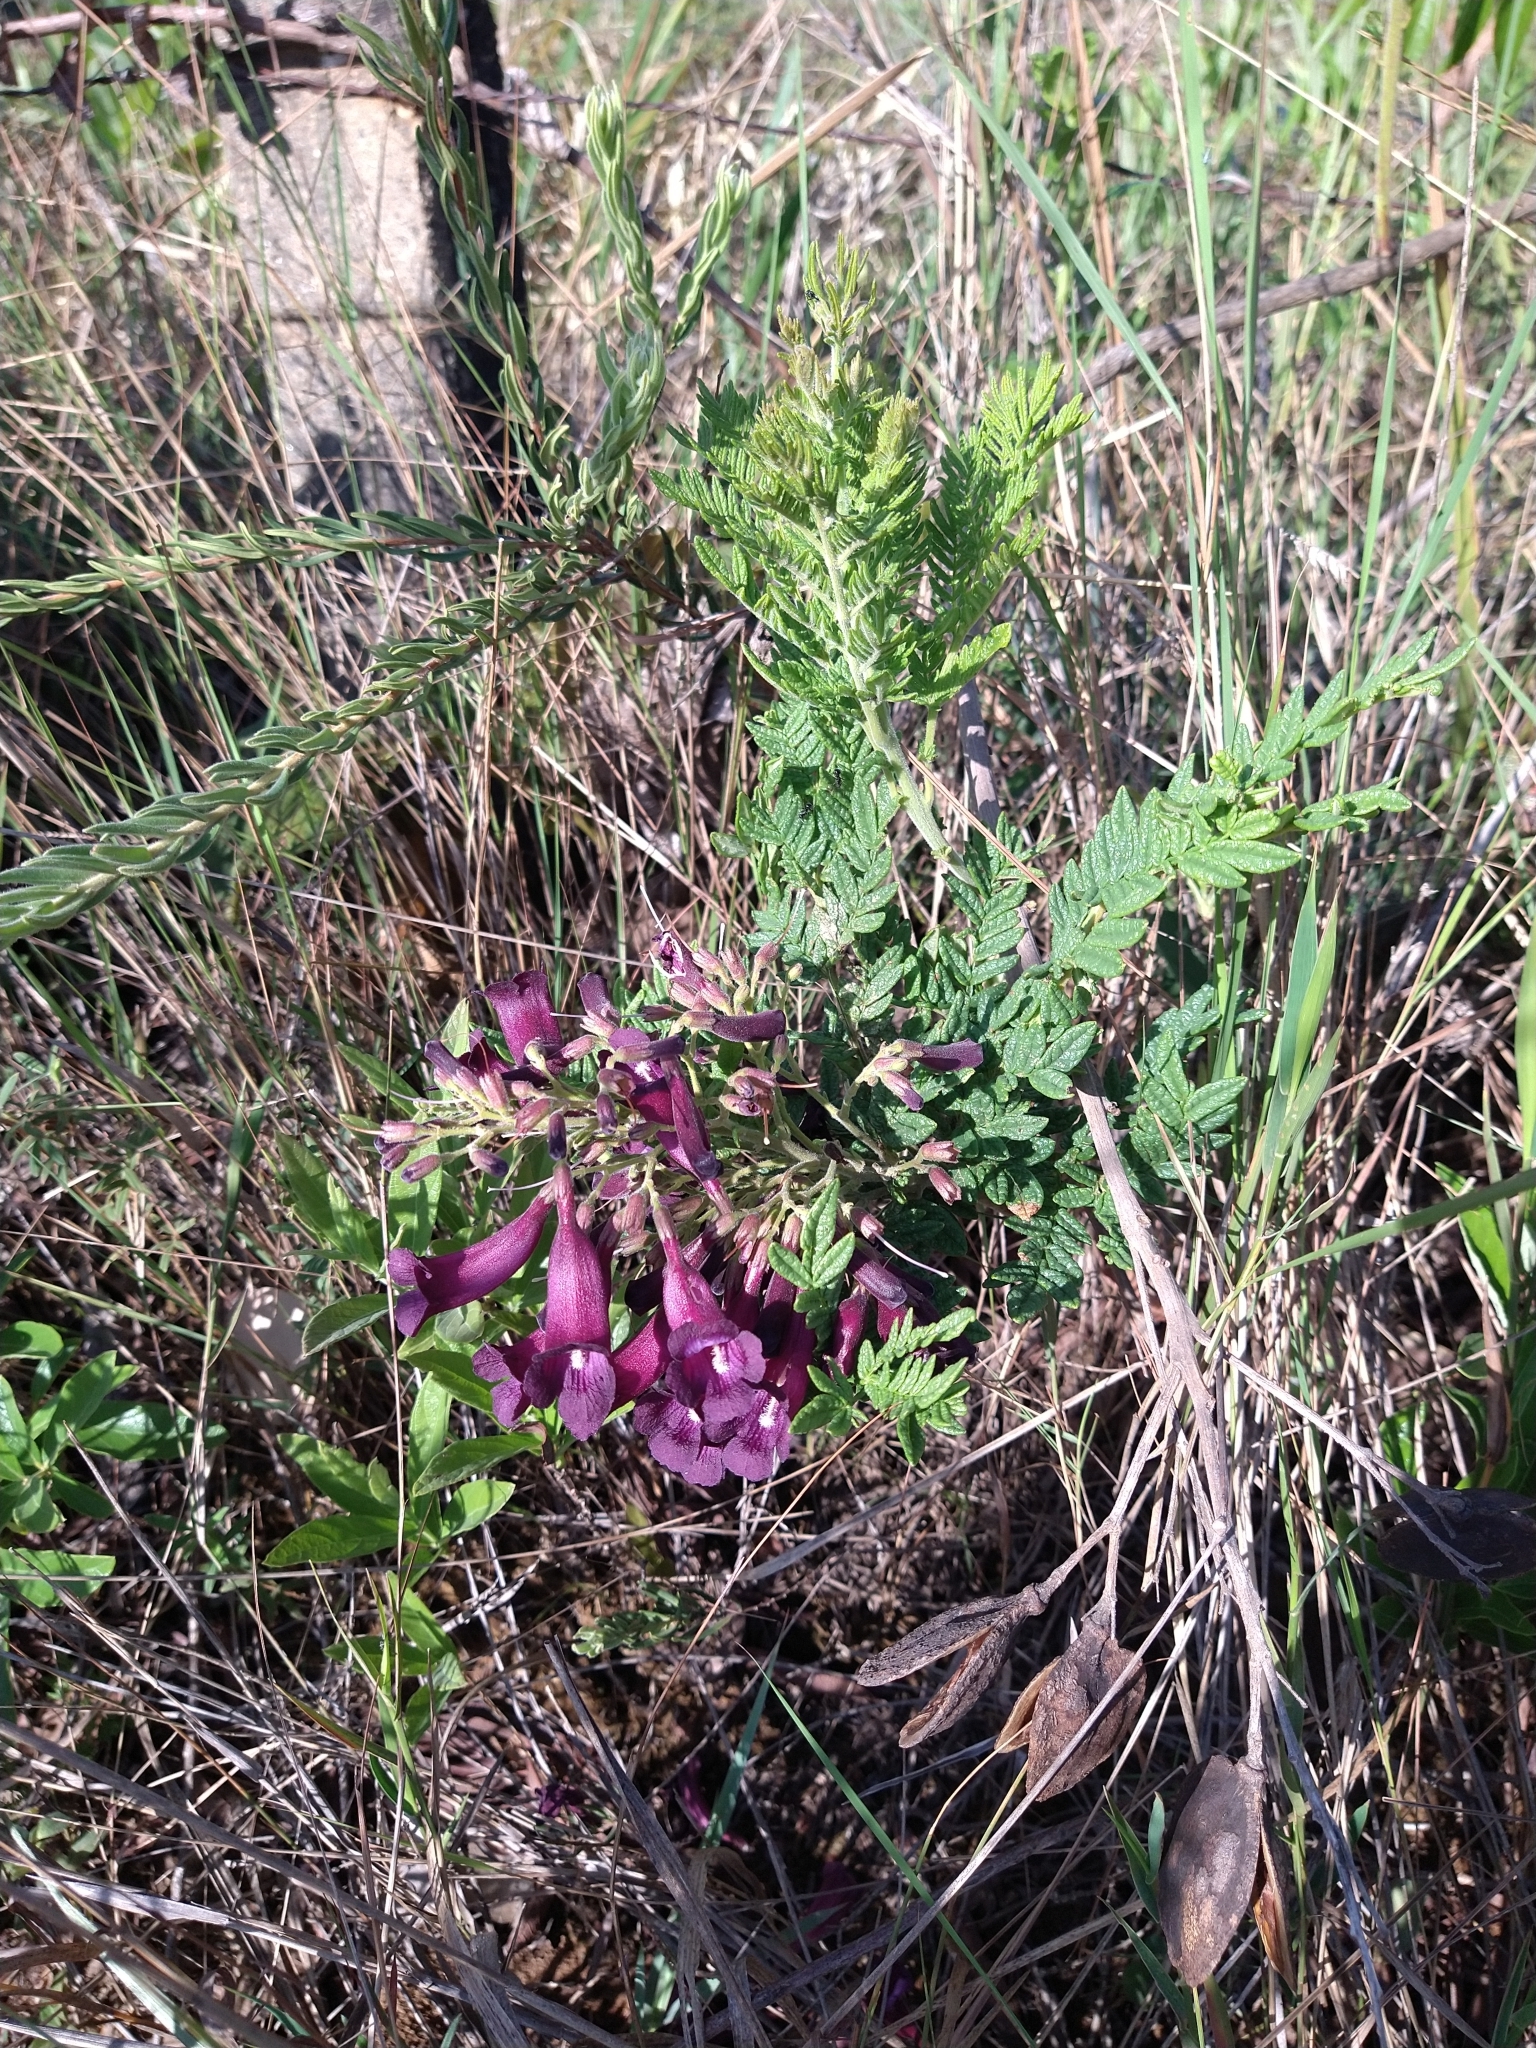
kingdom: Plantae
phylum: Tracheophyta
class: Magnoliopsida
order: Lamiales
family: Bignoniaceae
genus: Jacaranda
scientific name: Jacaranda ulei
